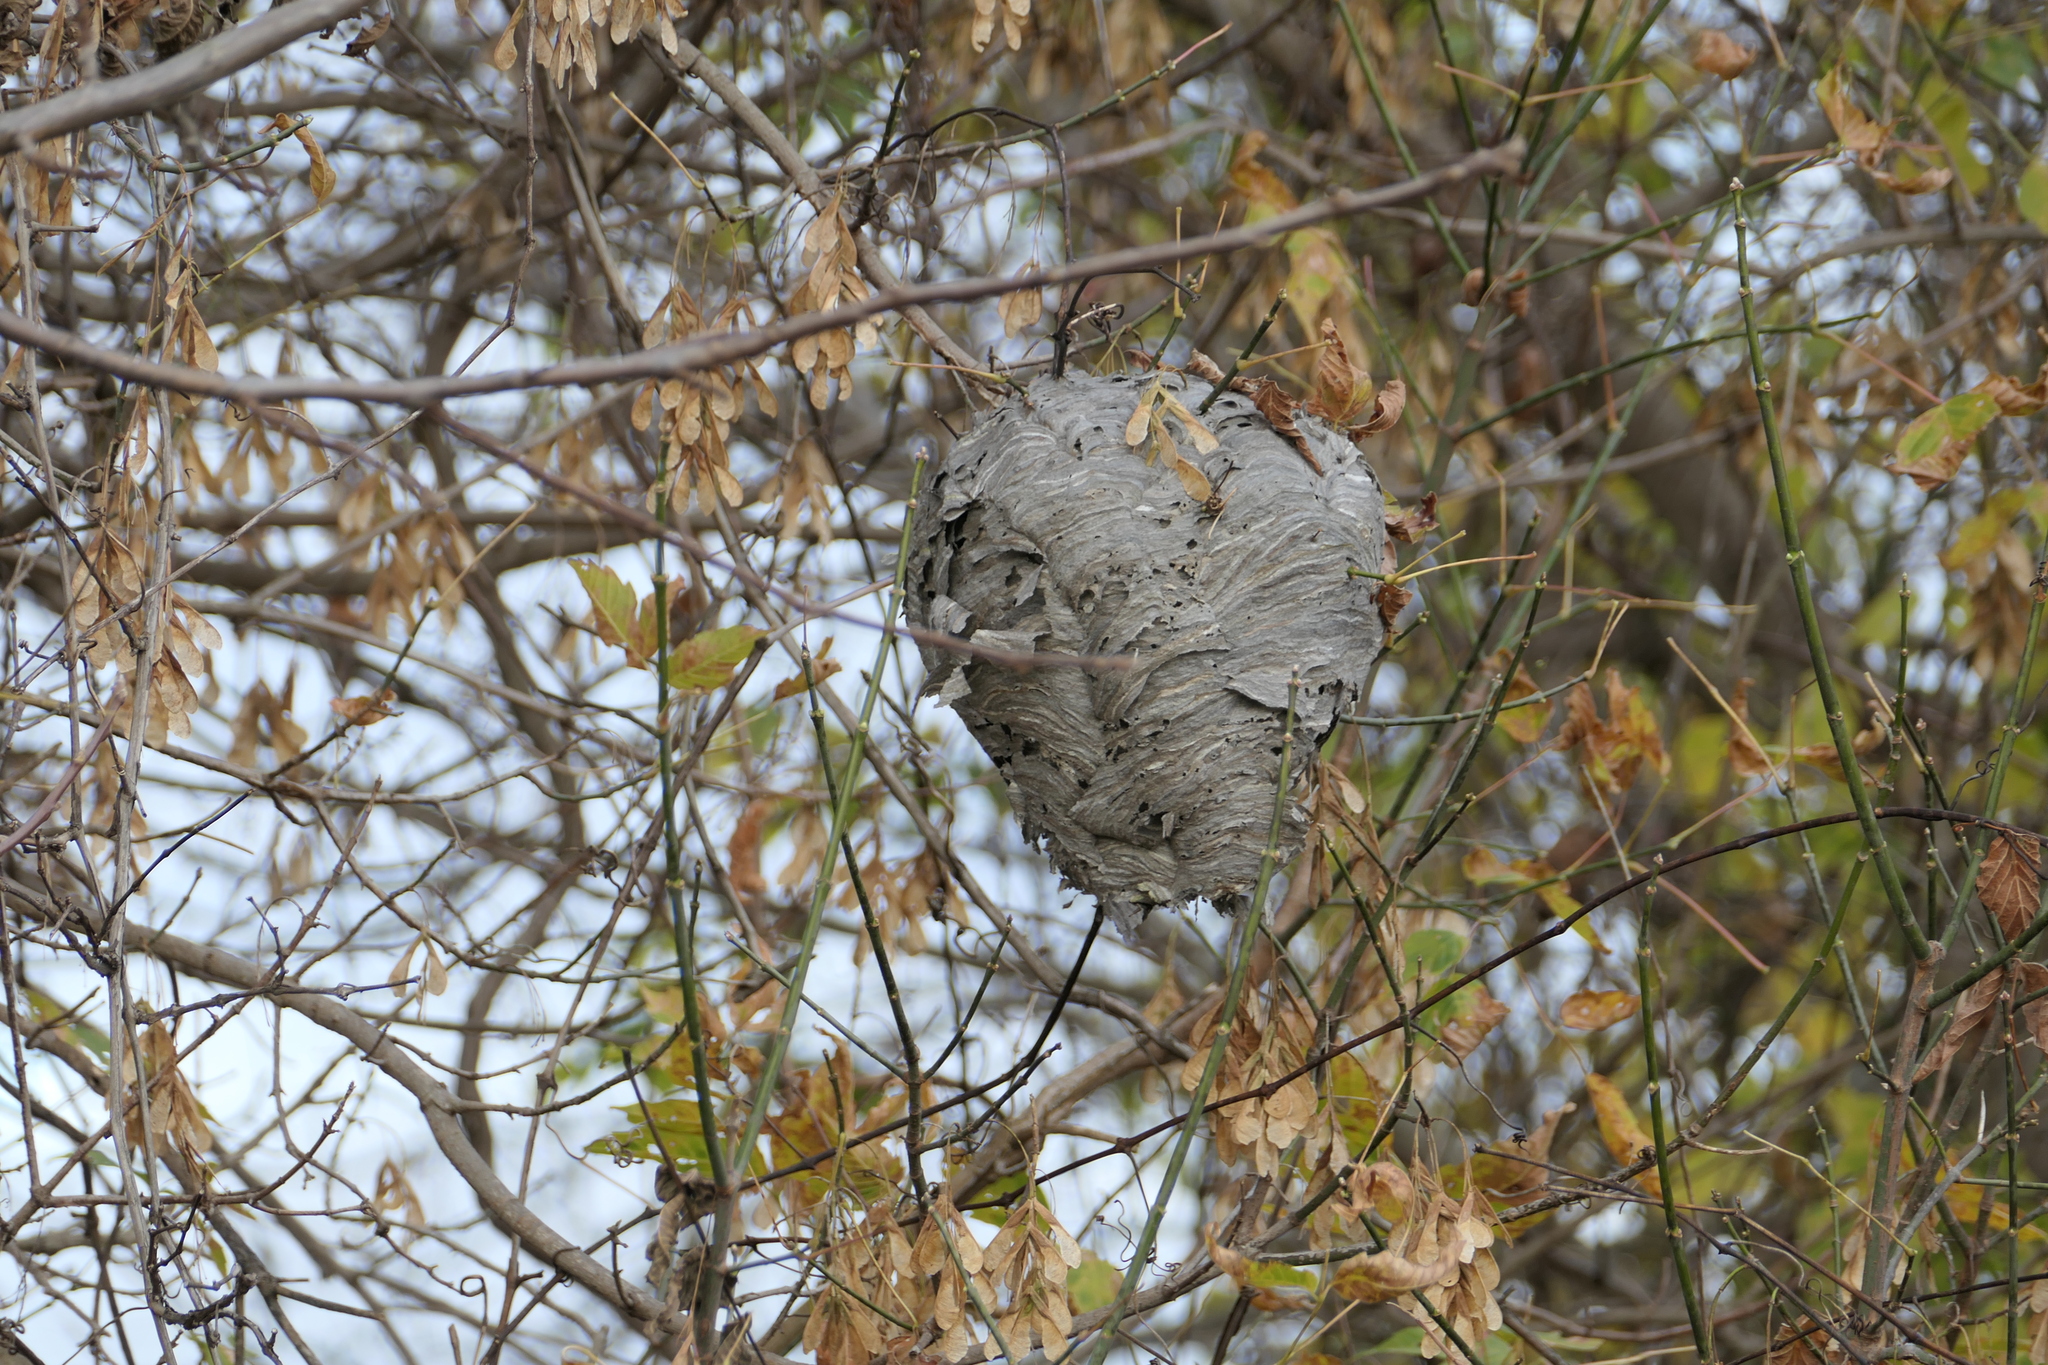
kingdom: Animalia
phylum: Arthropoda
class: Insecta
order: Hymenoptera
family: Vespidae
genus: Dolichovespula
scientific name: Dolichovespula maculata
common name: Bald-faced hornet
